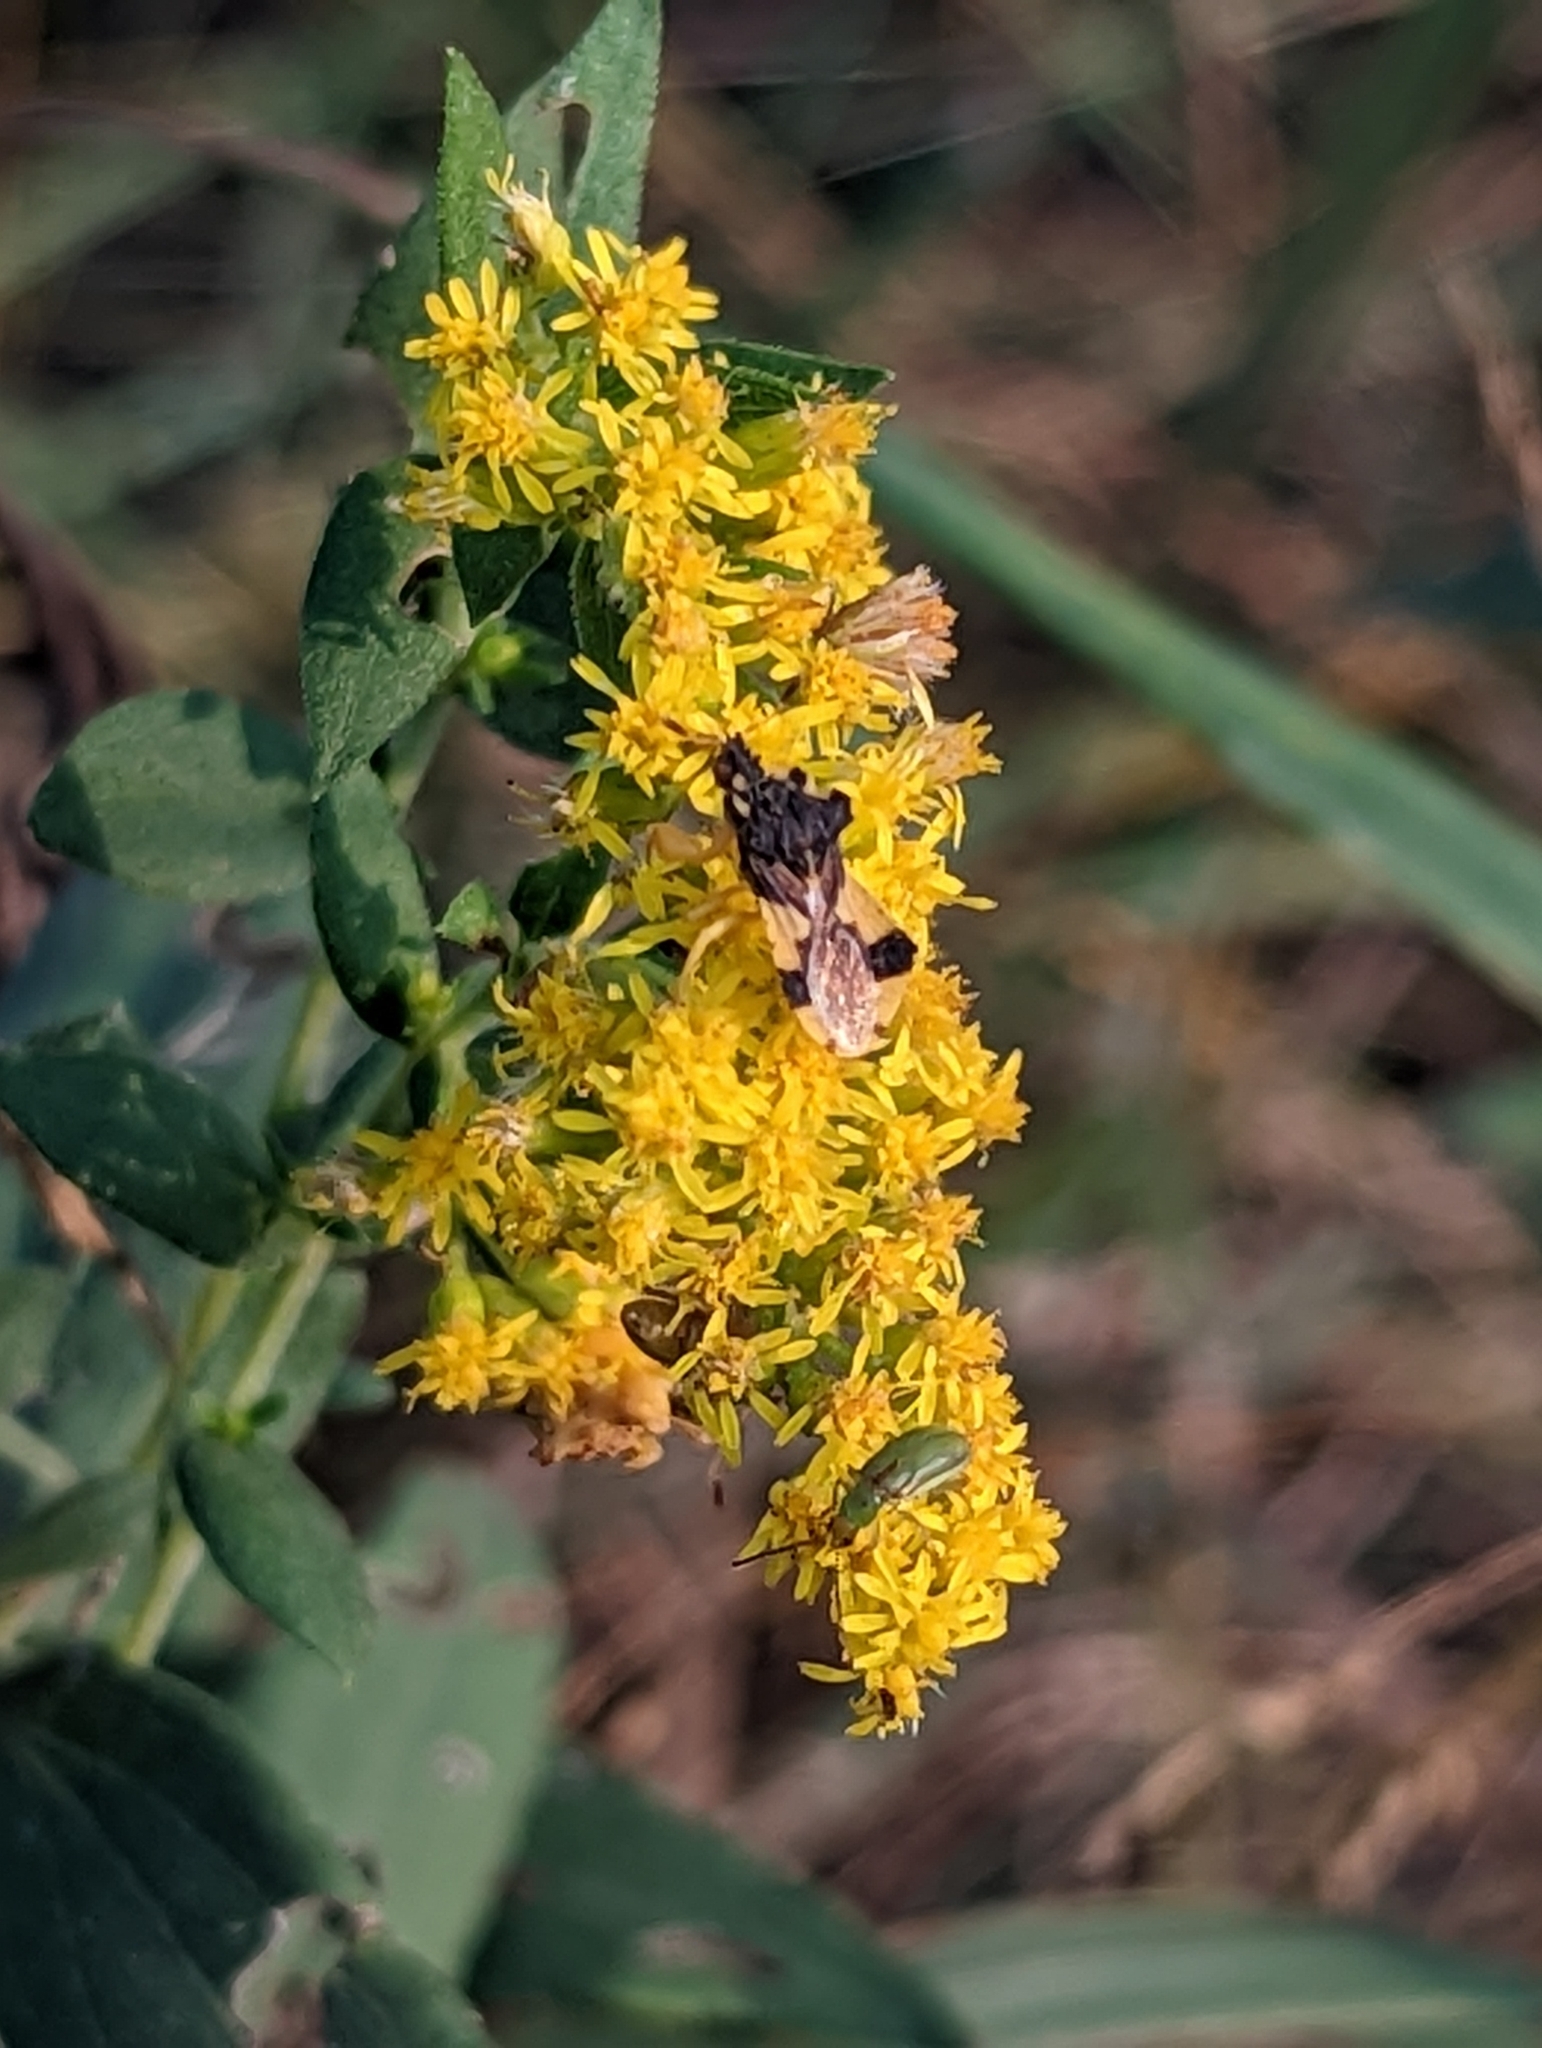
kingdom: Animalia
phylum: Arthropoda
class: Insecta
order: Hemiptera
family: Reduviidae
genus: Phymata
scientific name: Phymata americana
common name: Jagged ambush bug
